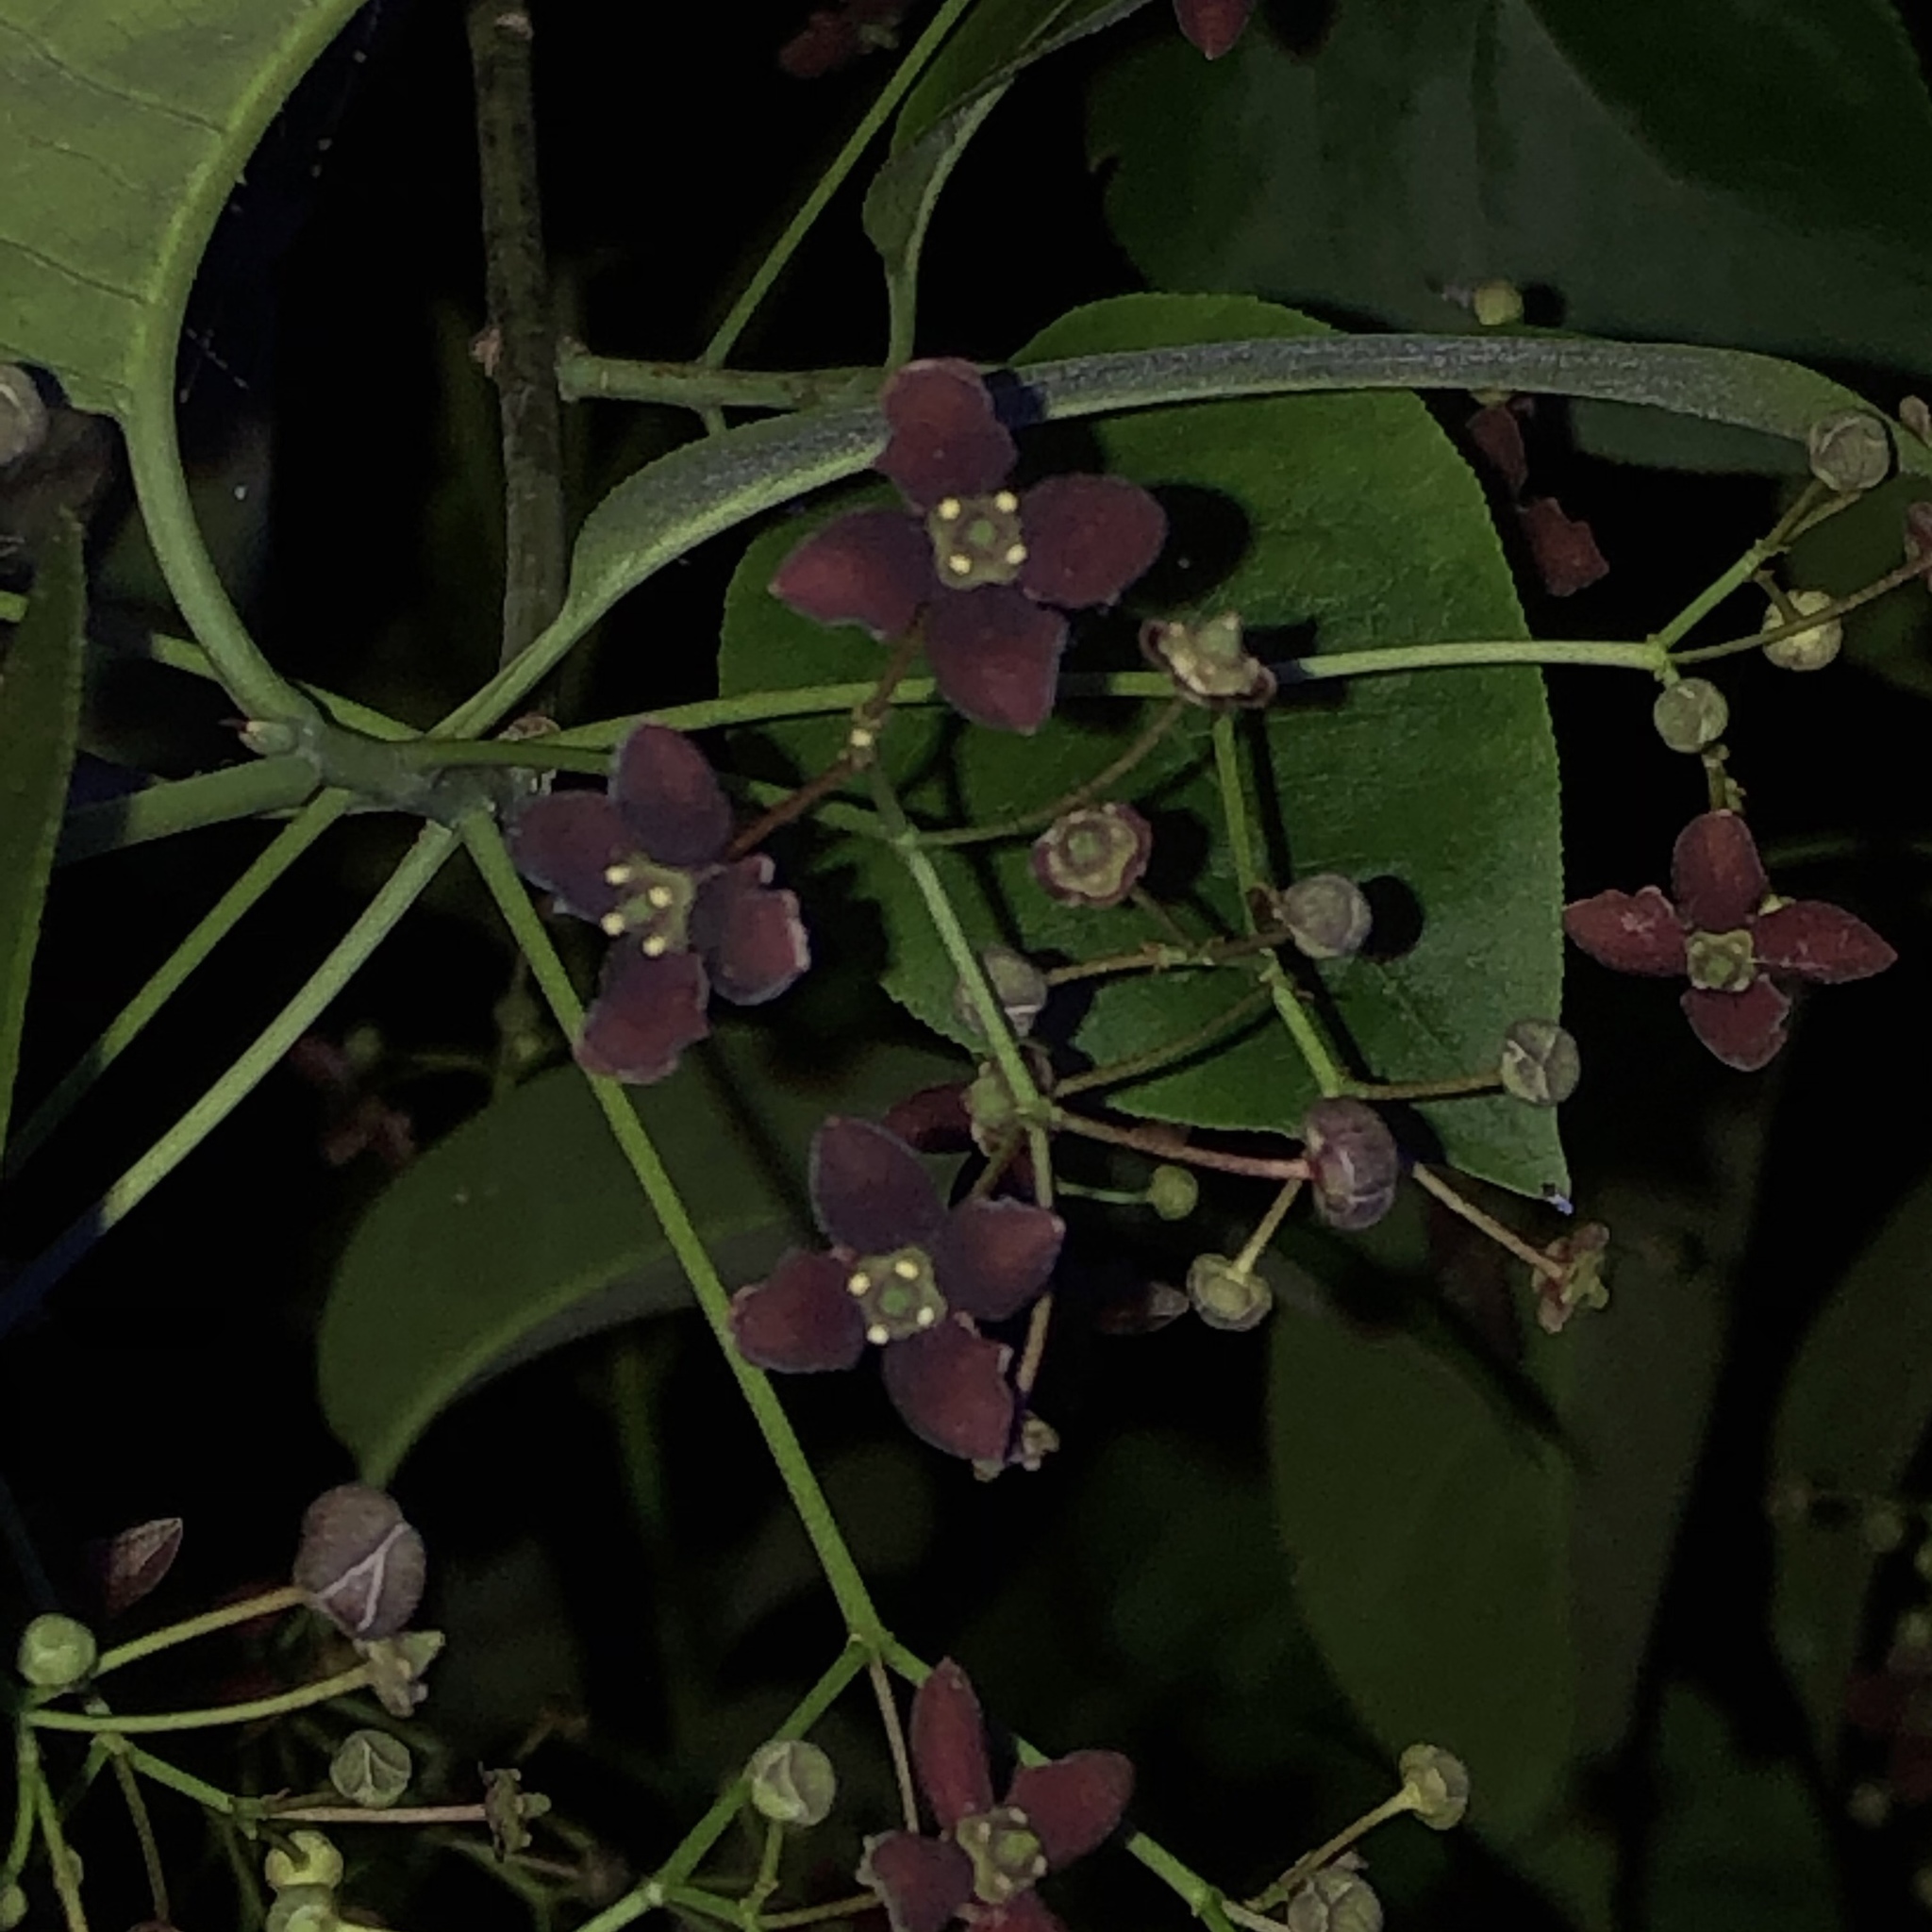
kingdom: Plantae
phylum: Tracheophyta
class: Magnoliopsida
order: Celastrales
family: Celastraceae
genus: Euonymus
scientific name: Euonymus atropurpureus
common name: Eastern wahoo
